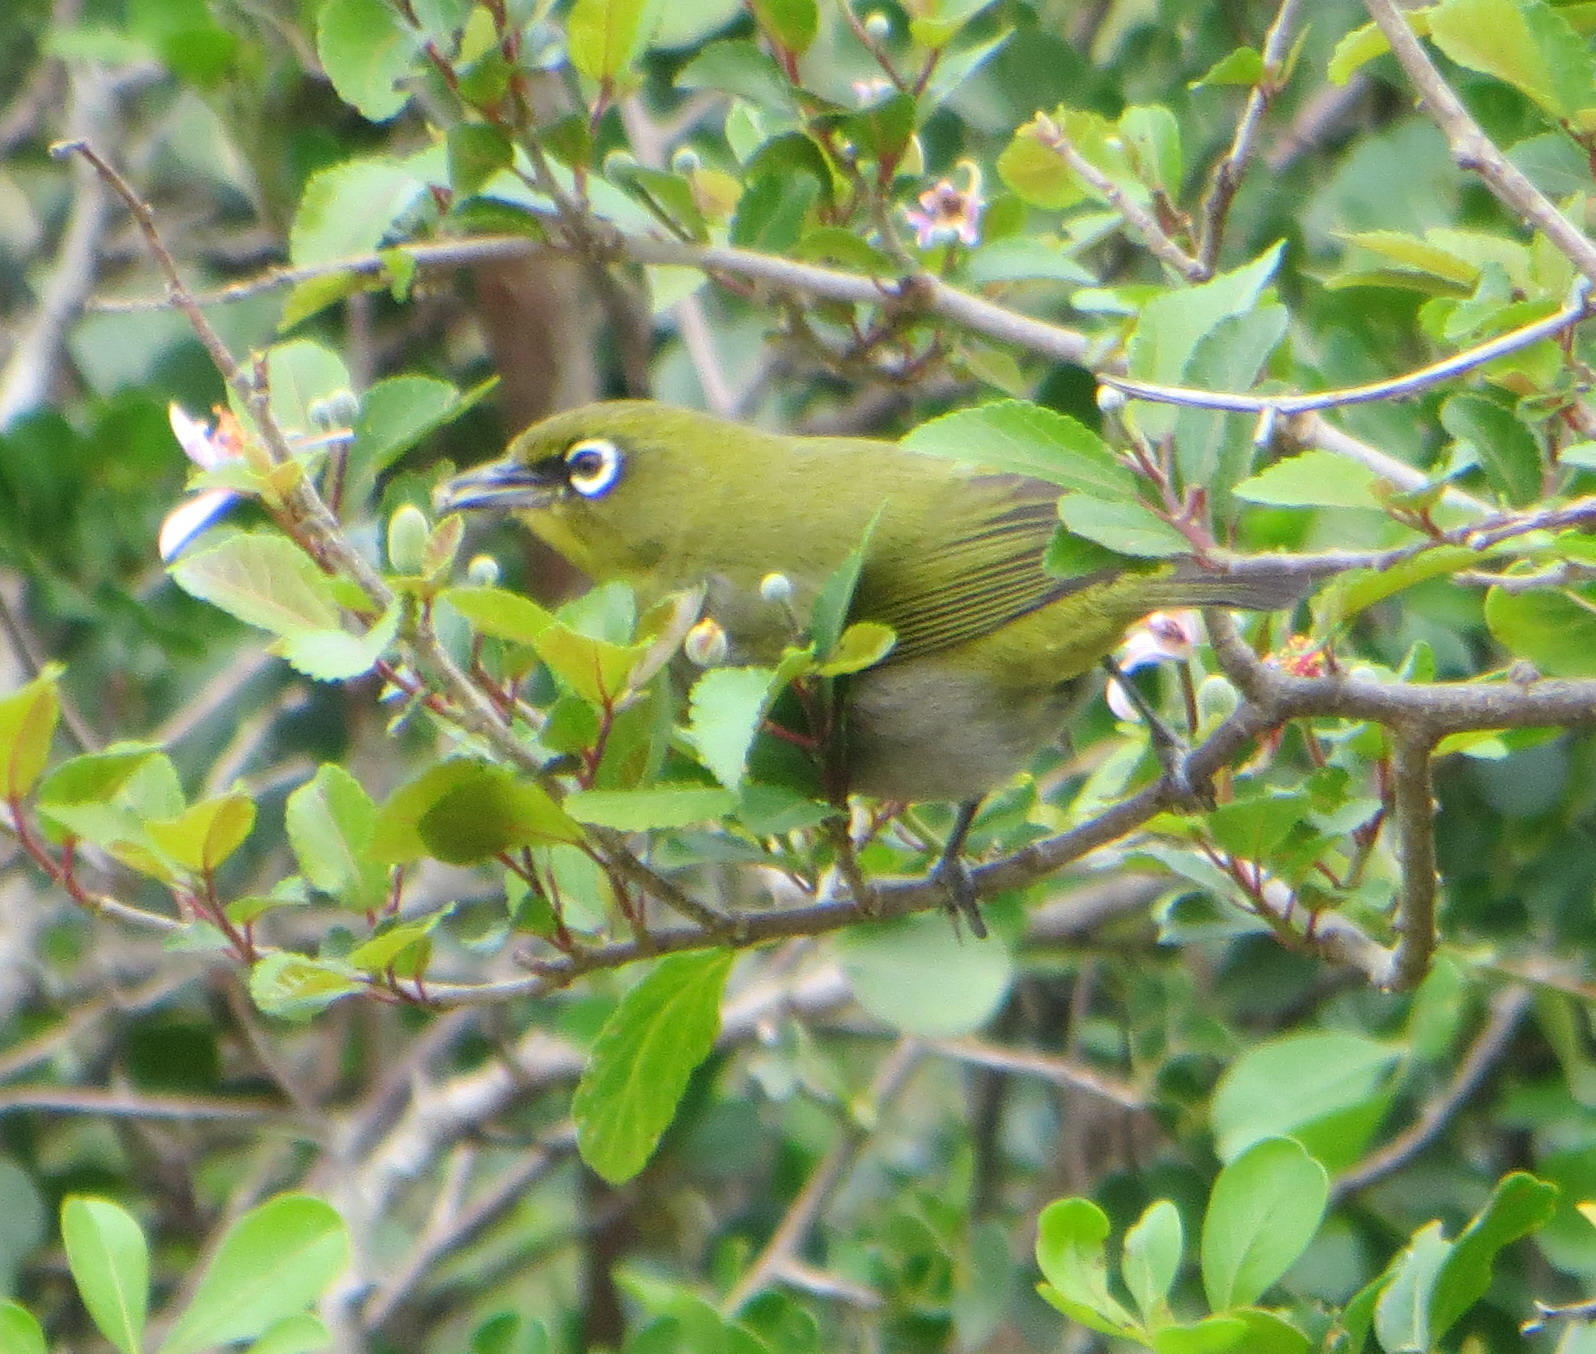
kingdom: Animalia
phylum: Chordata
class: Aves
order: Passeriformes
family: Zosteropidae
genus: Zosterops
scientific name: Zosterops virens
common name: Cape white-eye
